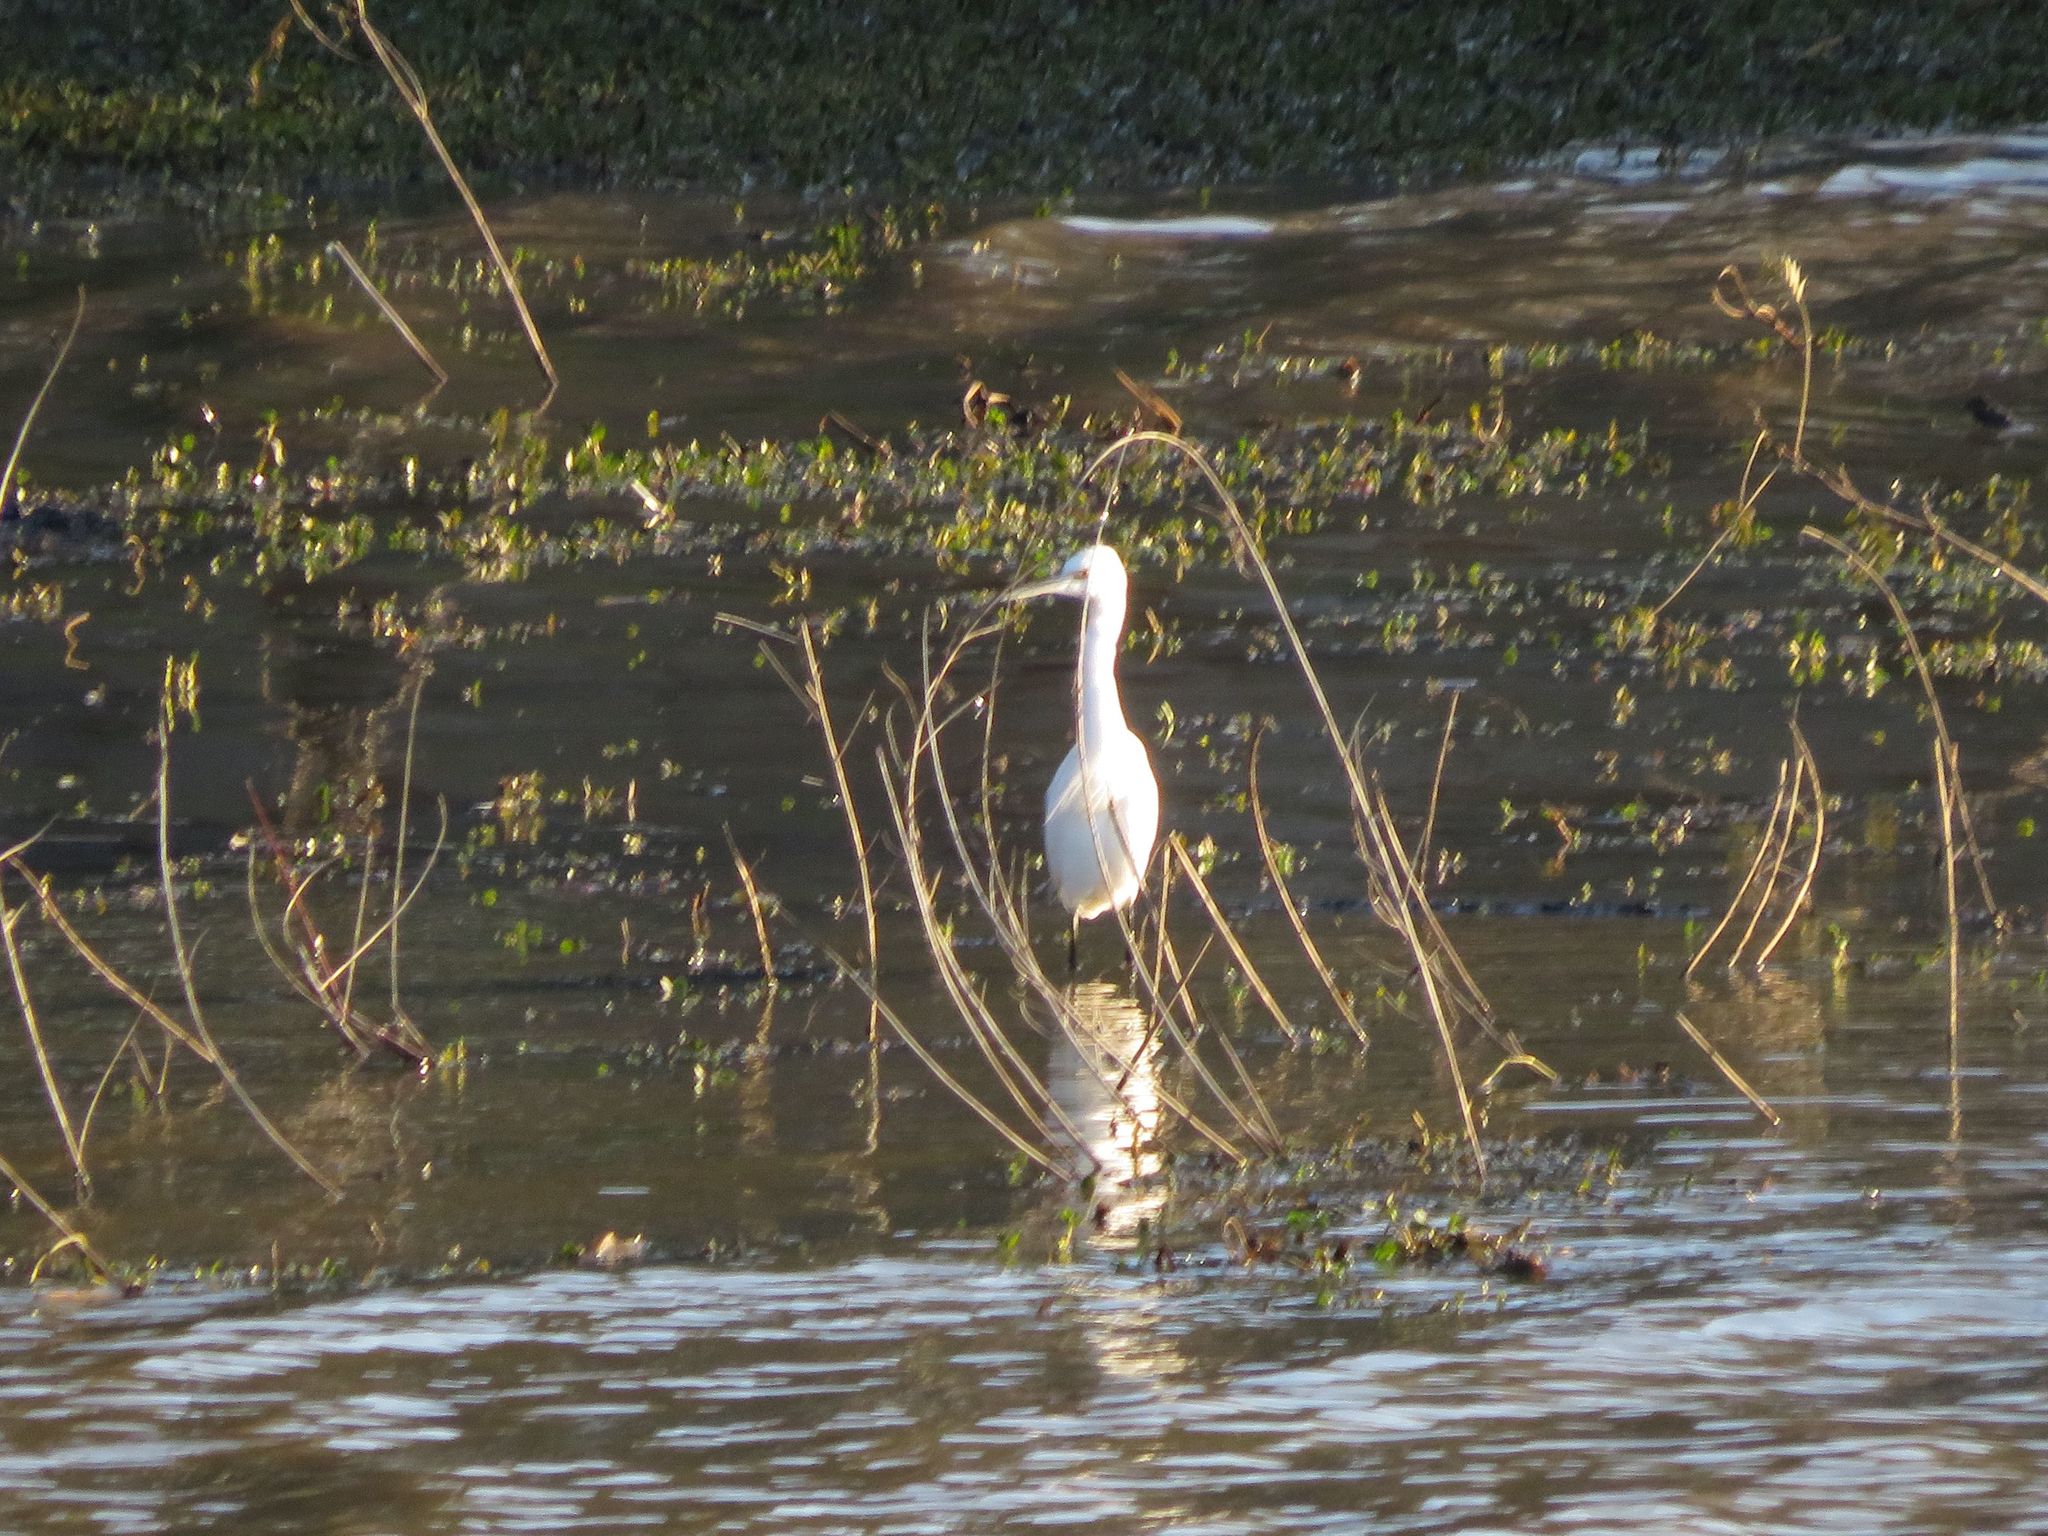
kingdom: Animalia
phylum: Chordata
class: Aves
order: Pelecaniformes
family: Ardeidae
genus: Egretta
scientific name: Egretta thula
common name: Snowy egret
